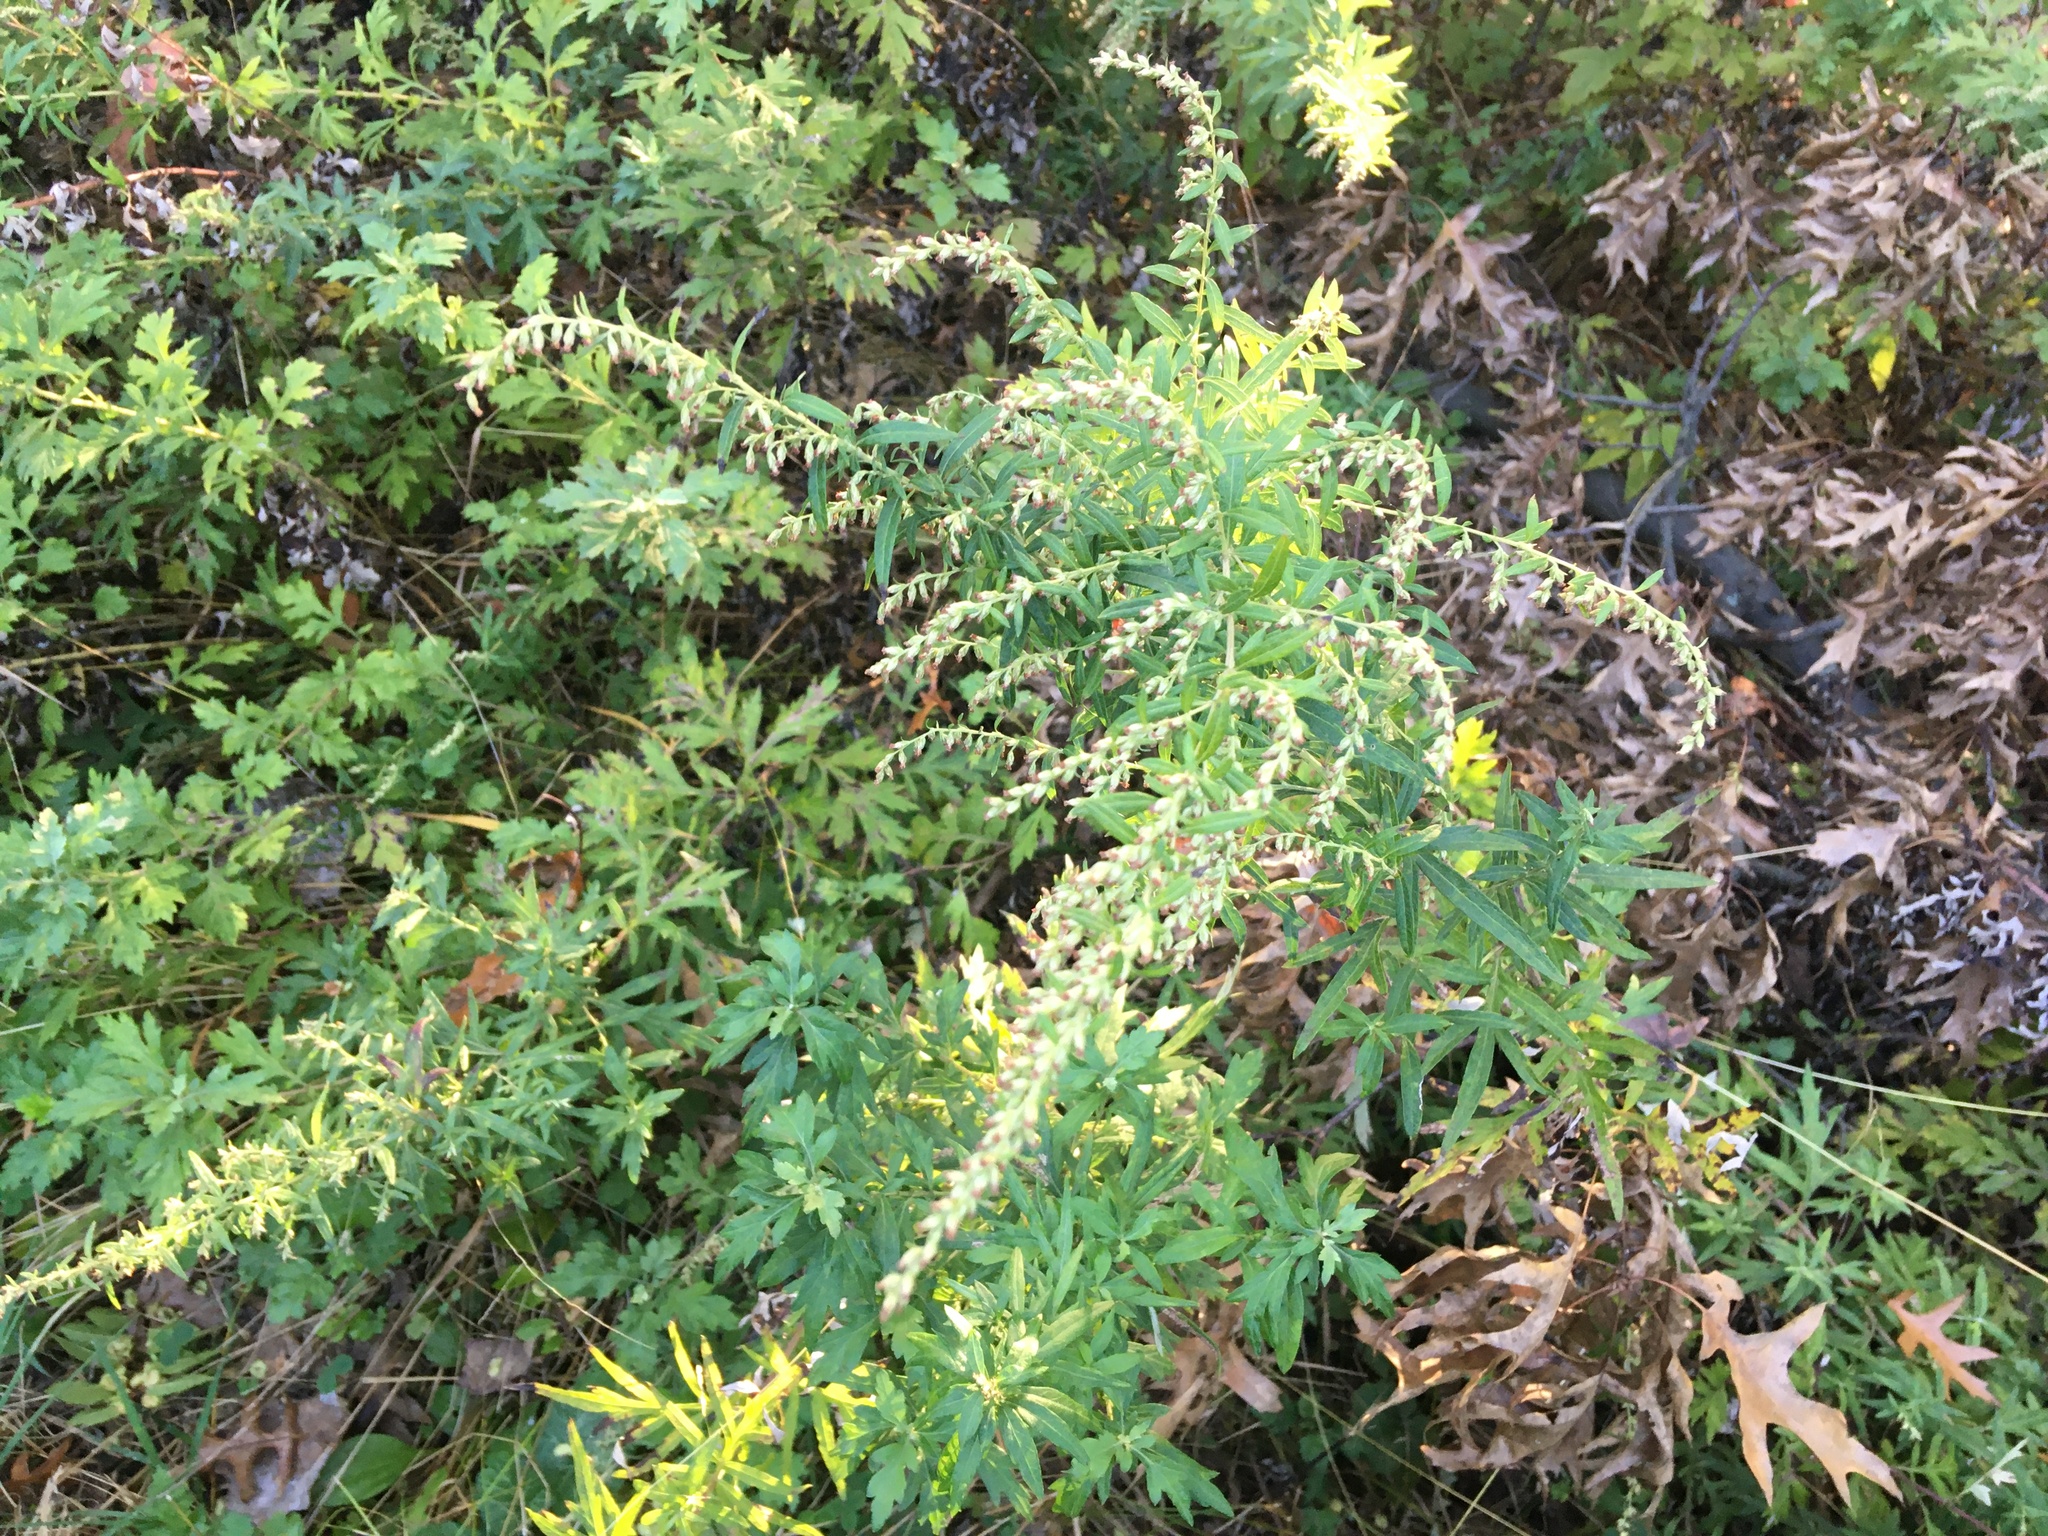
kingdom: Plantae
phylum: Tracheophyta
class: Magnoliopsida
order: Asterales
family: Asteraceae
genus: Artemisia
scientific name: Artemisia vulgaris
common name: Mugwort
